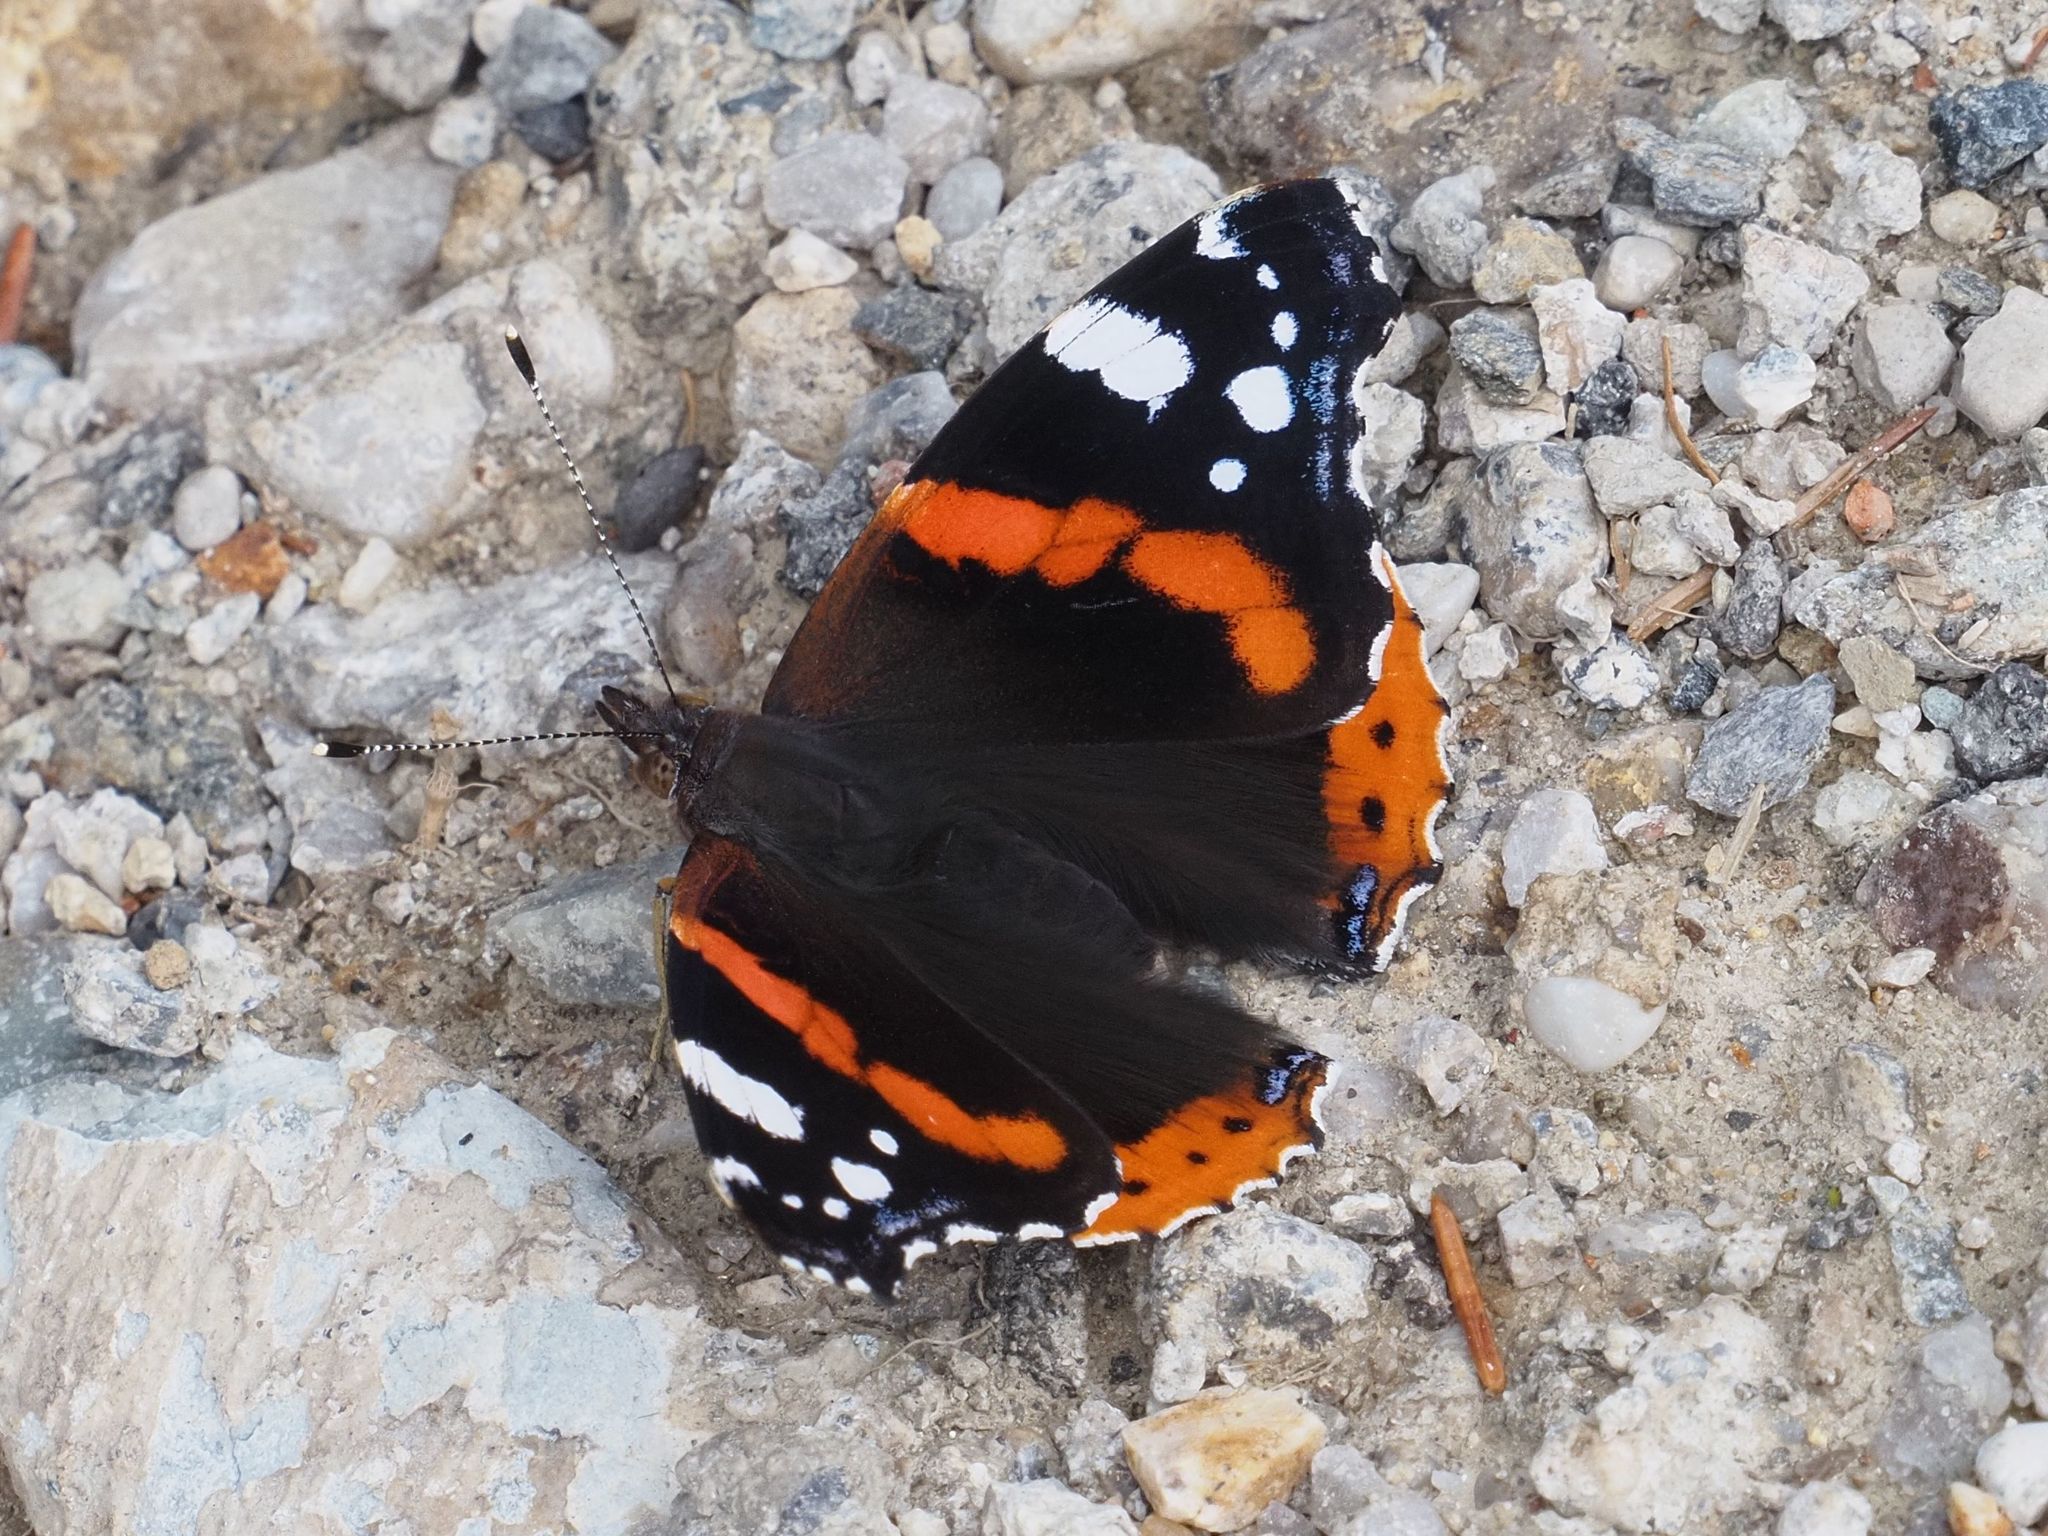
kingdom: Animalia
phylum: Arthropoda
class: Insecta
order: Lepidoptera
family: Nymphalidae
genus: Vanessa
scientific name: Vanessa atalanta
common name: Red admiral
